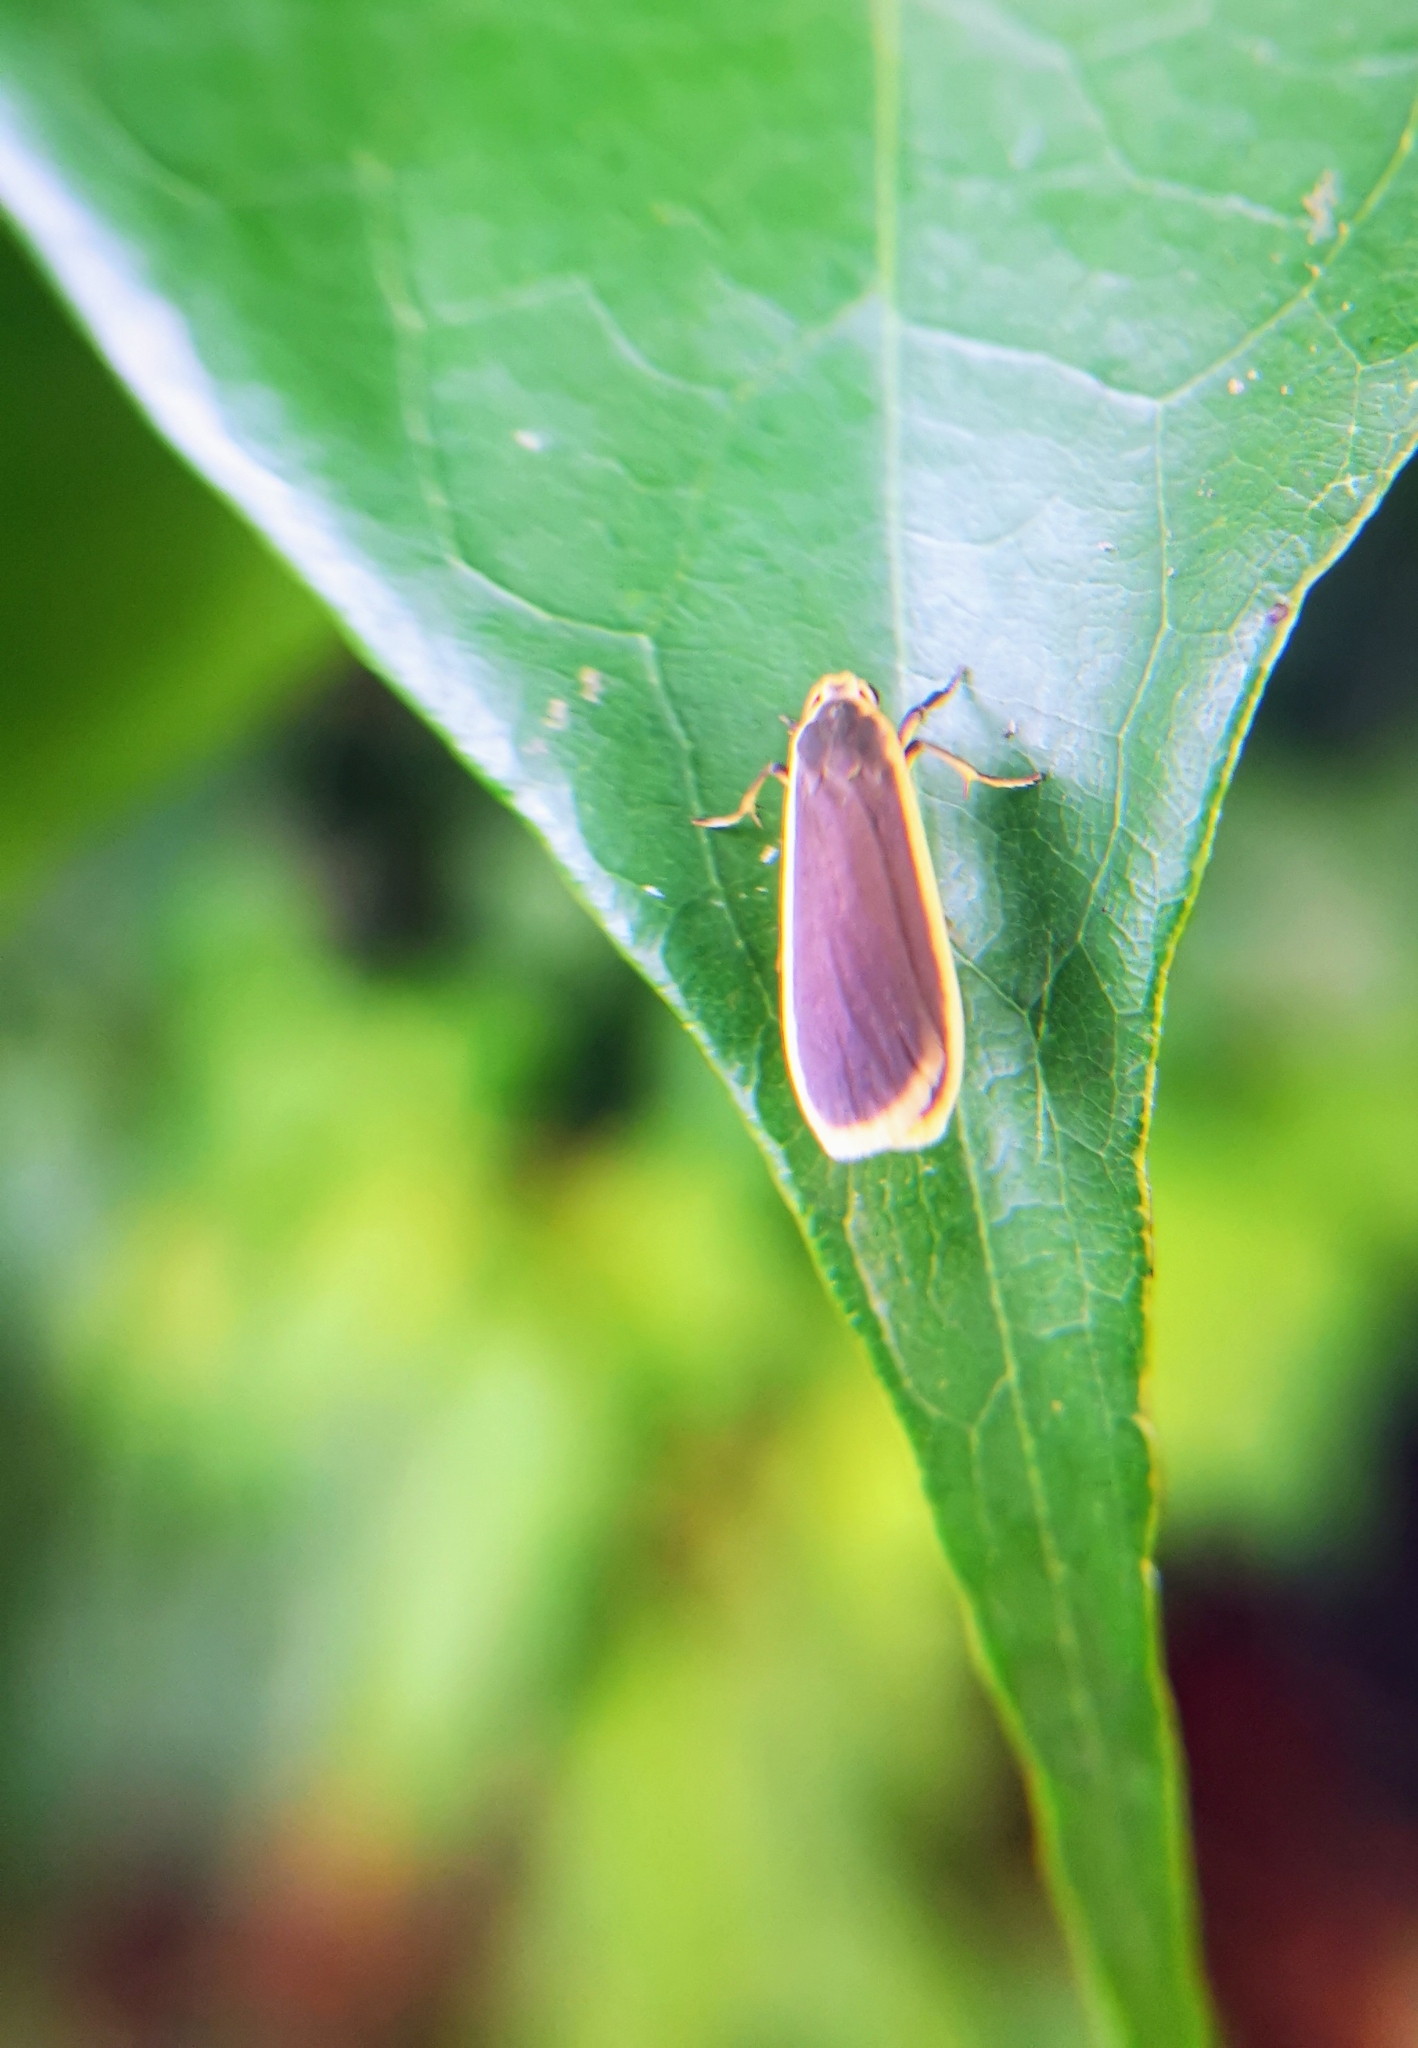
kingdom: Animalia
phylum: Arthropoda
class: Insecta
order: Lepidoptera
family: Erebidae
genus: Katha
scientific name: Katha
